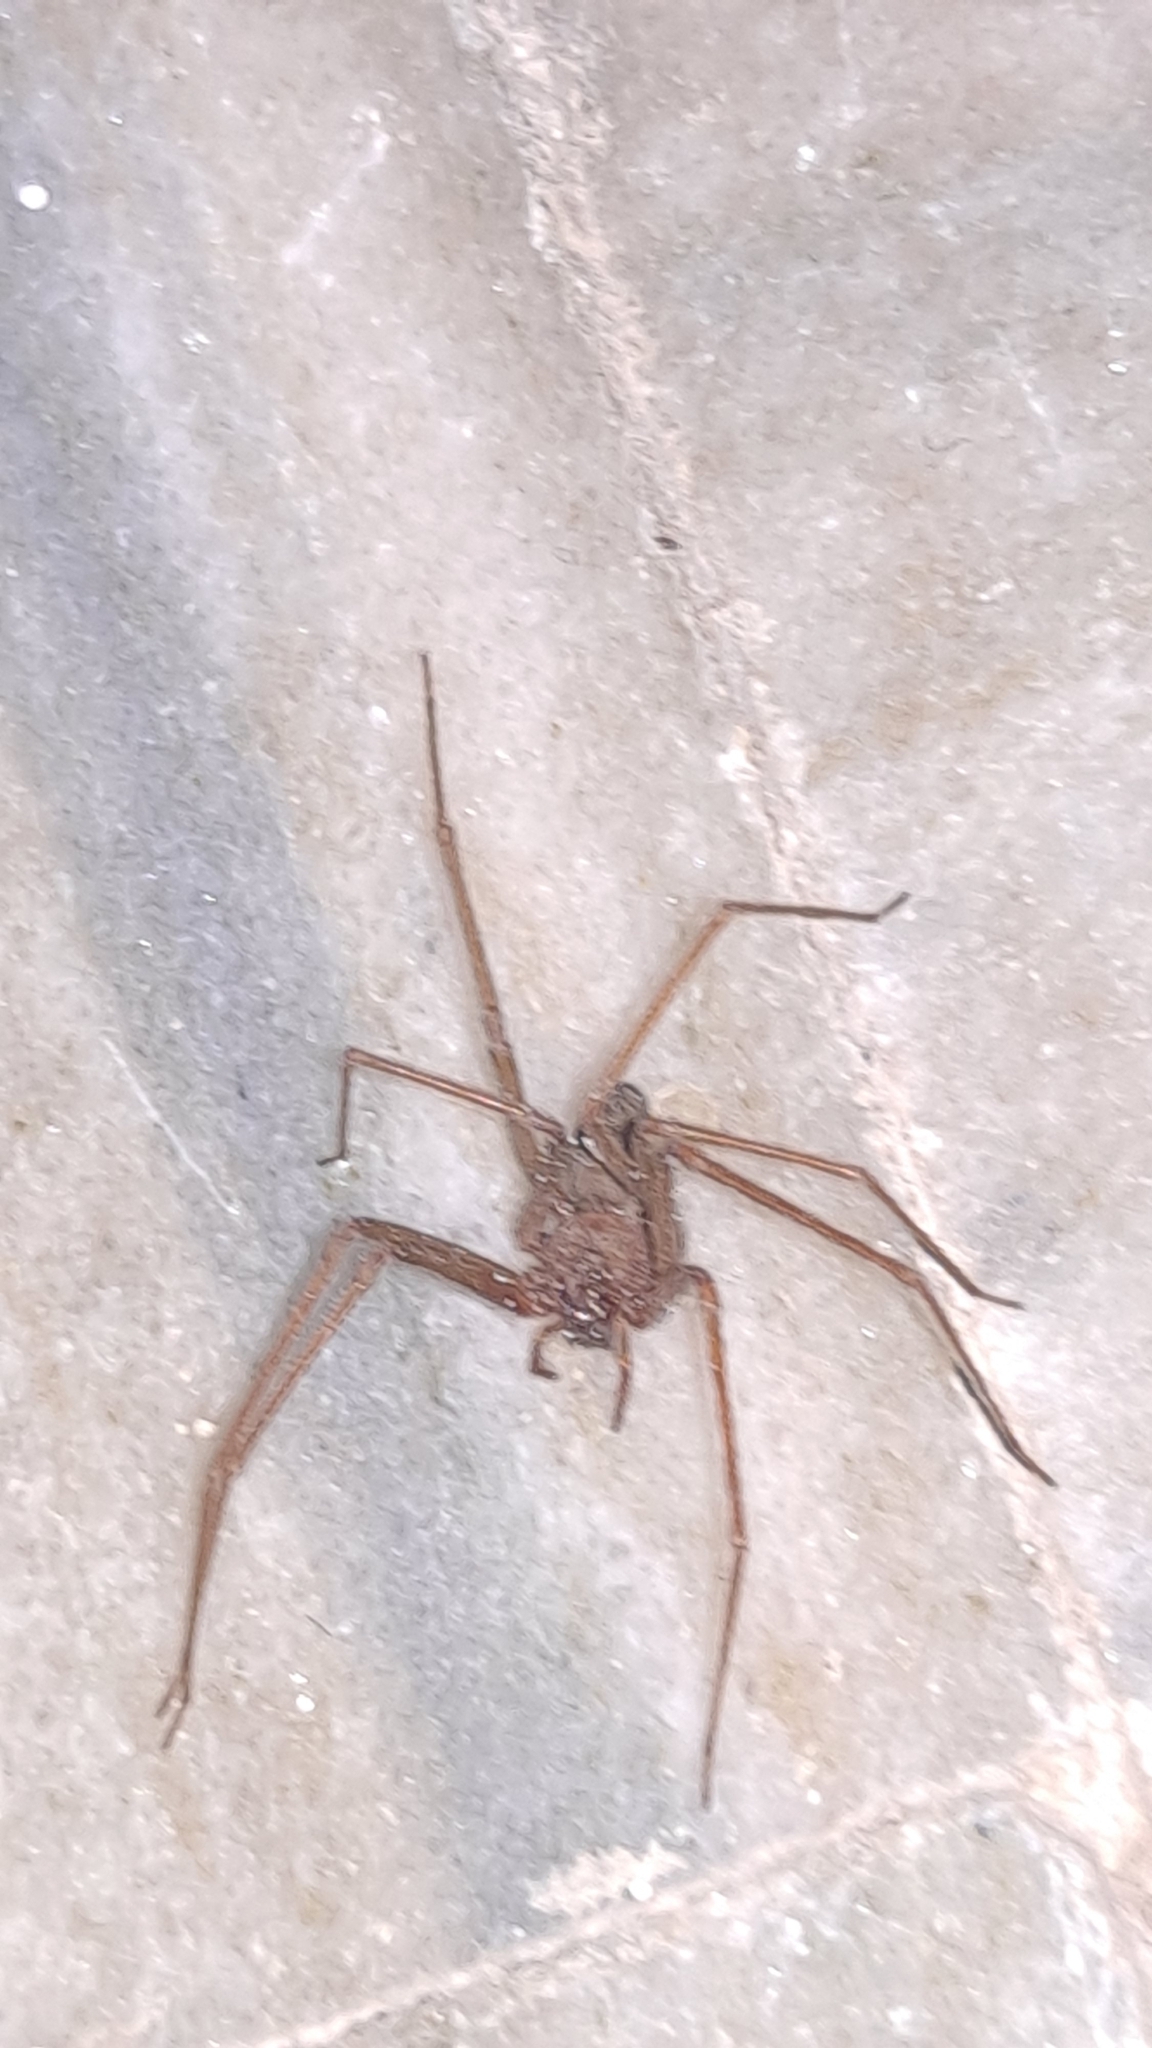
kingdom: Animalia
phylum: Arthropoda
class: Arachnida
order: Araneae
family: Sicariidae
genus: Loxosceles
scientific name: Loxosceles rufescens
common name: Mediterranean recluse spider
